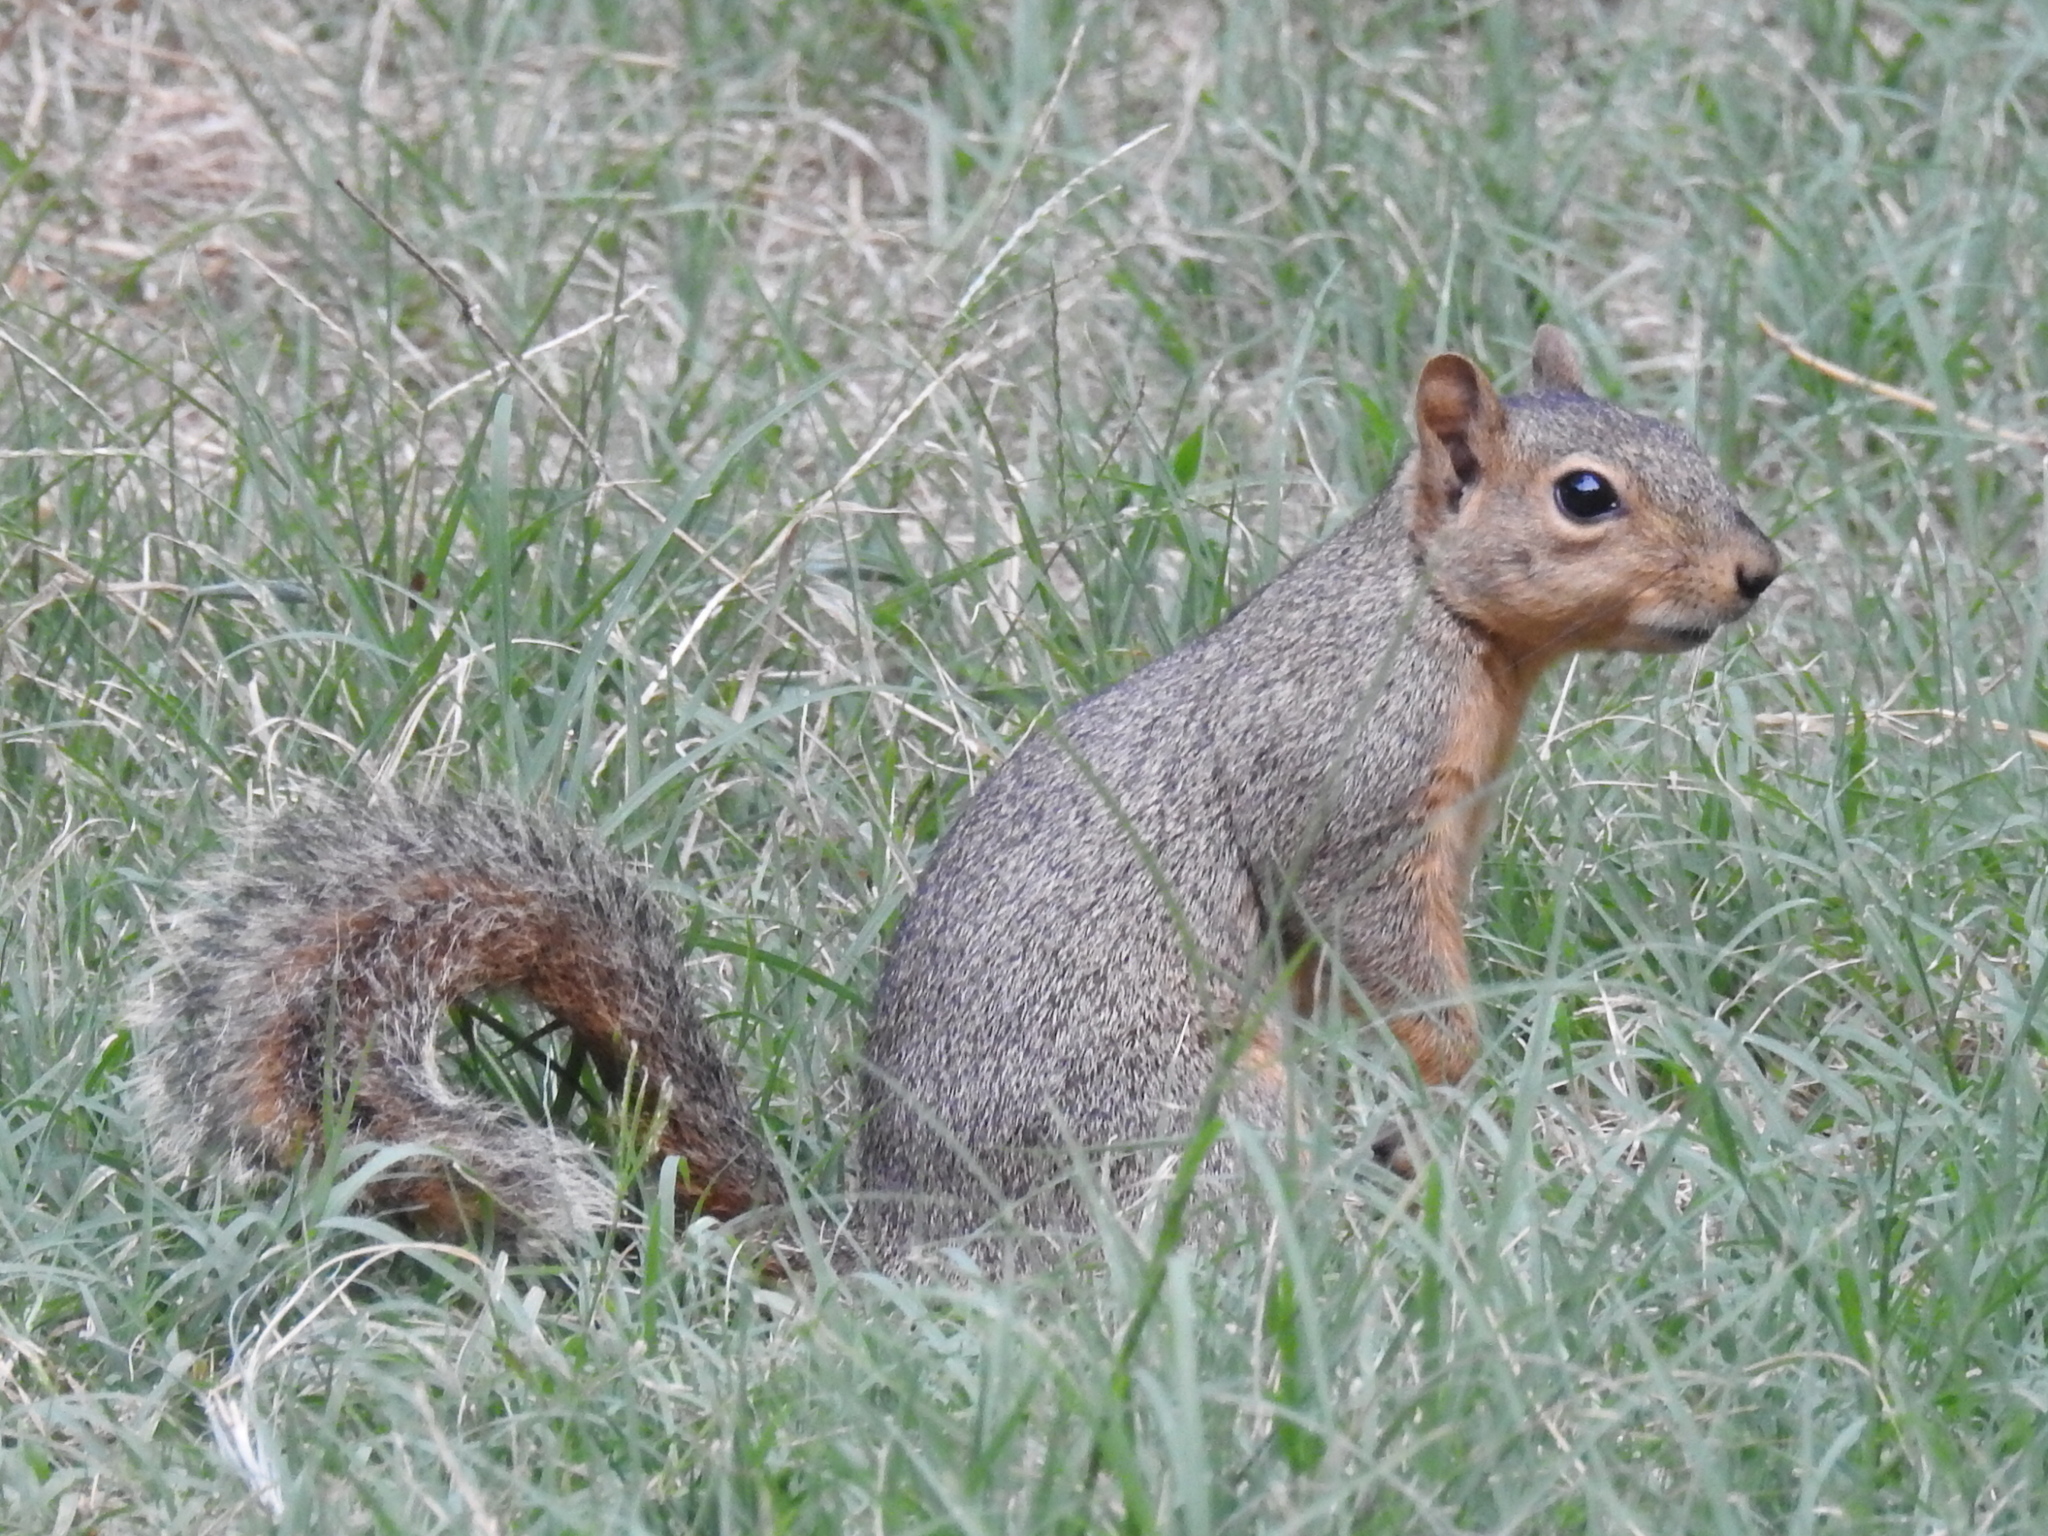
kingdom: Animalia
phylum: Chordata
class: Mammalia
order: Rodentia
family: Sciuridae
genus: Sciurus
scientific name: Sciurus niger
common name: Fox squirrel
